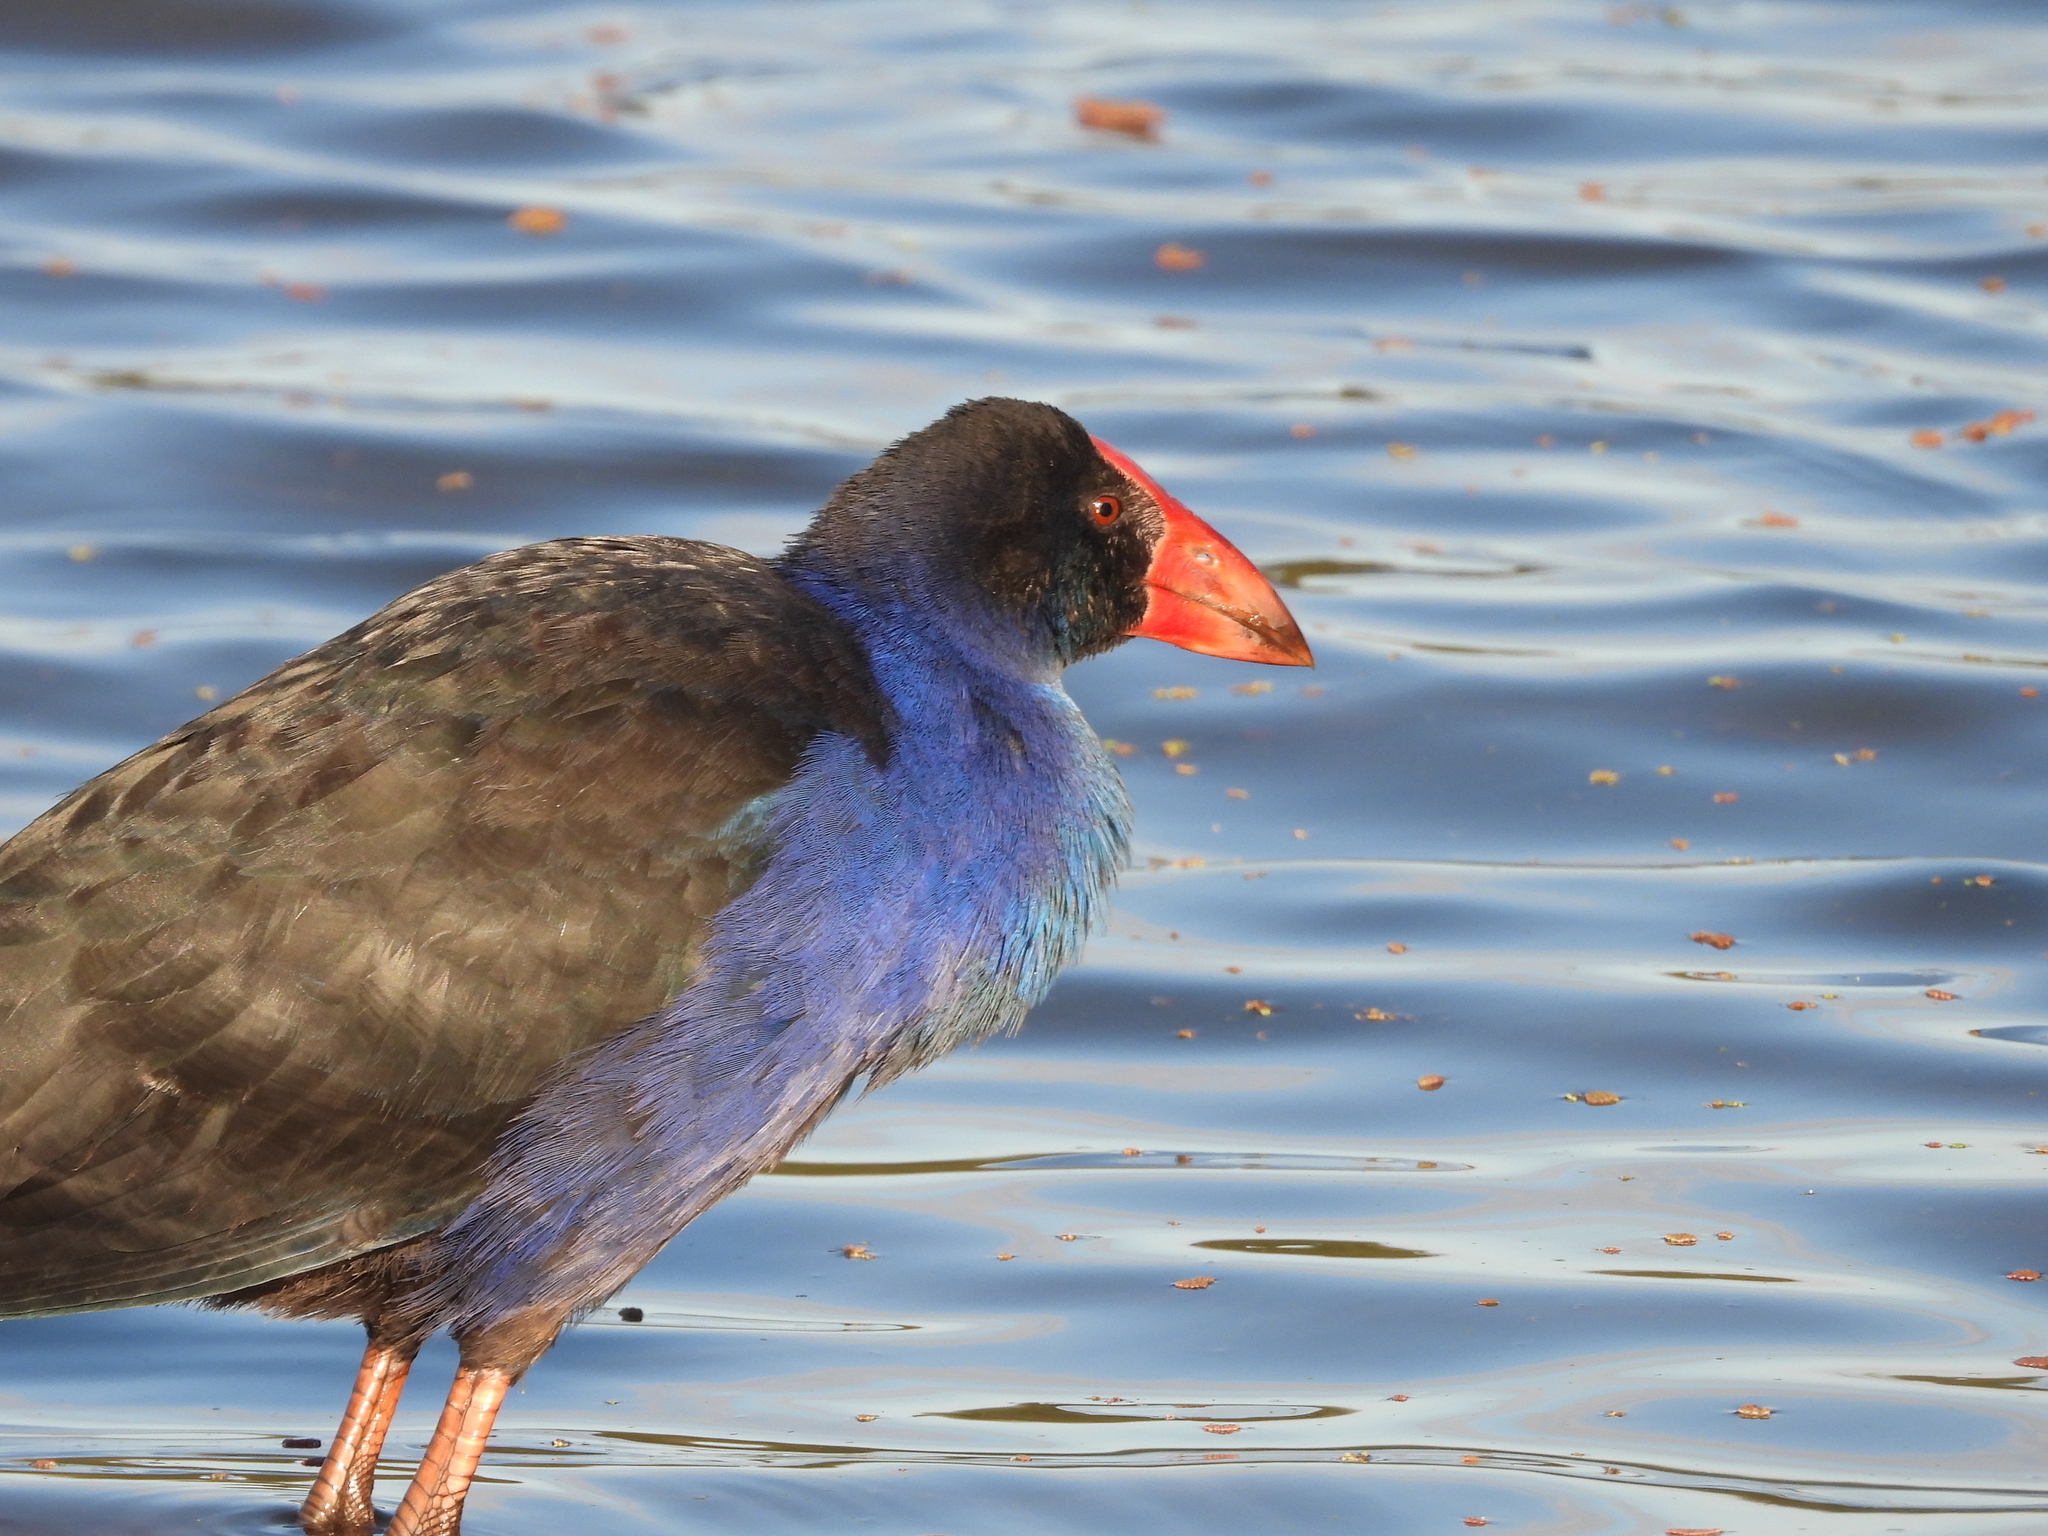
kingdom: Animalia
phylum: Chordata
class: Aves
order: Gruiformes
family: Rallidae
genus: Porphyrio
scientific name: Porphyrio melanotus
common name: Australasian swamphen
